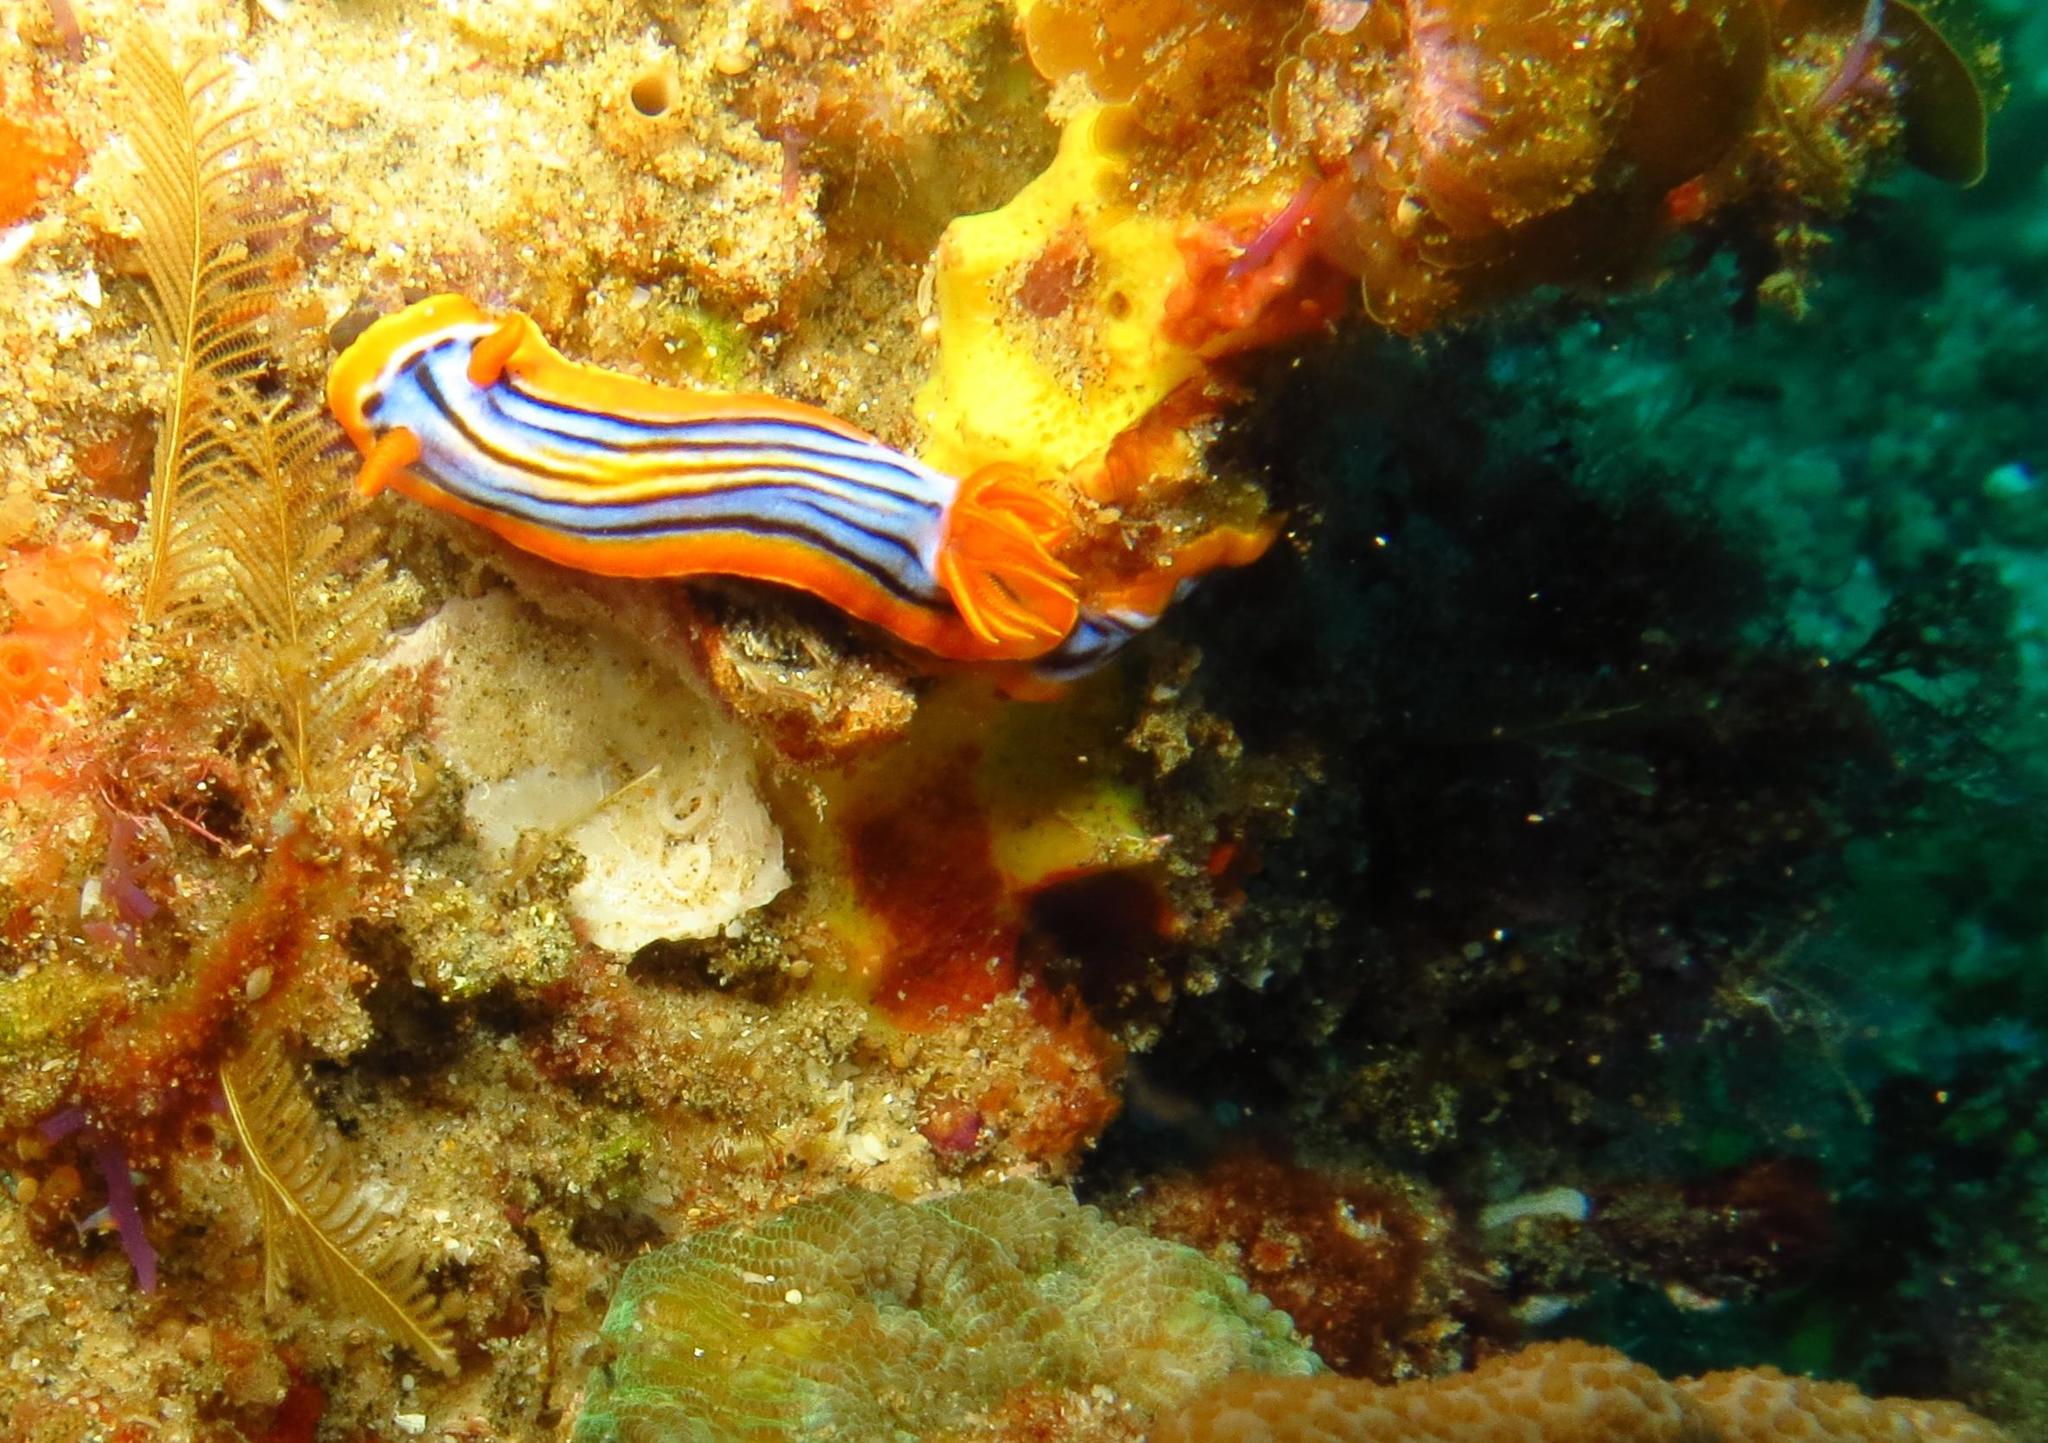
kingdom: Animalia
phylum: Mollusca
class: Gastropoda
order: Nudibranchia
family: Chromodorididae
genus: Chromodoris
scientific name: Chromodoris hamiltoni
